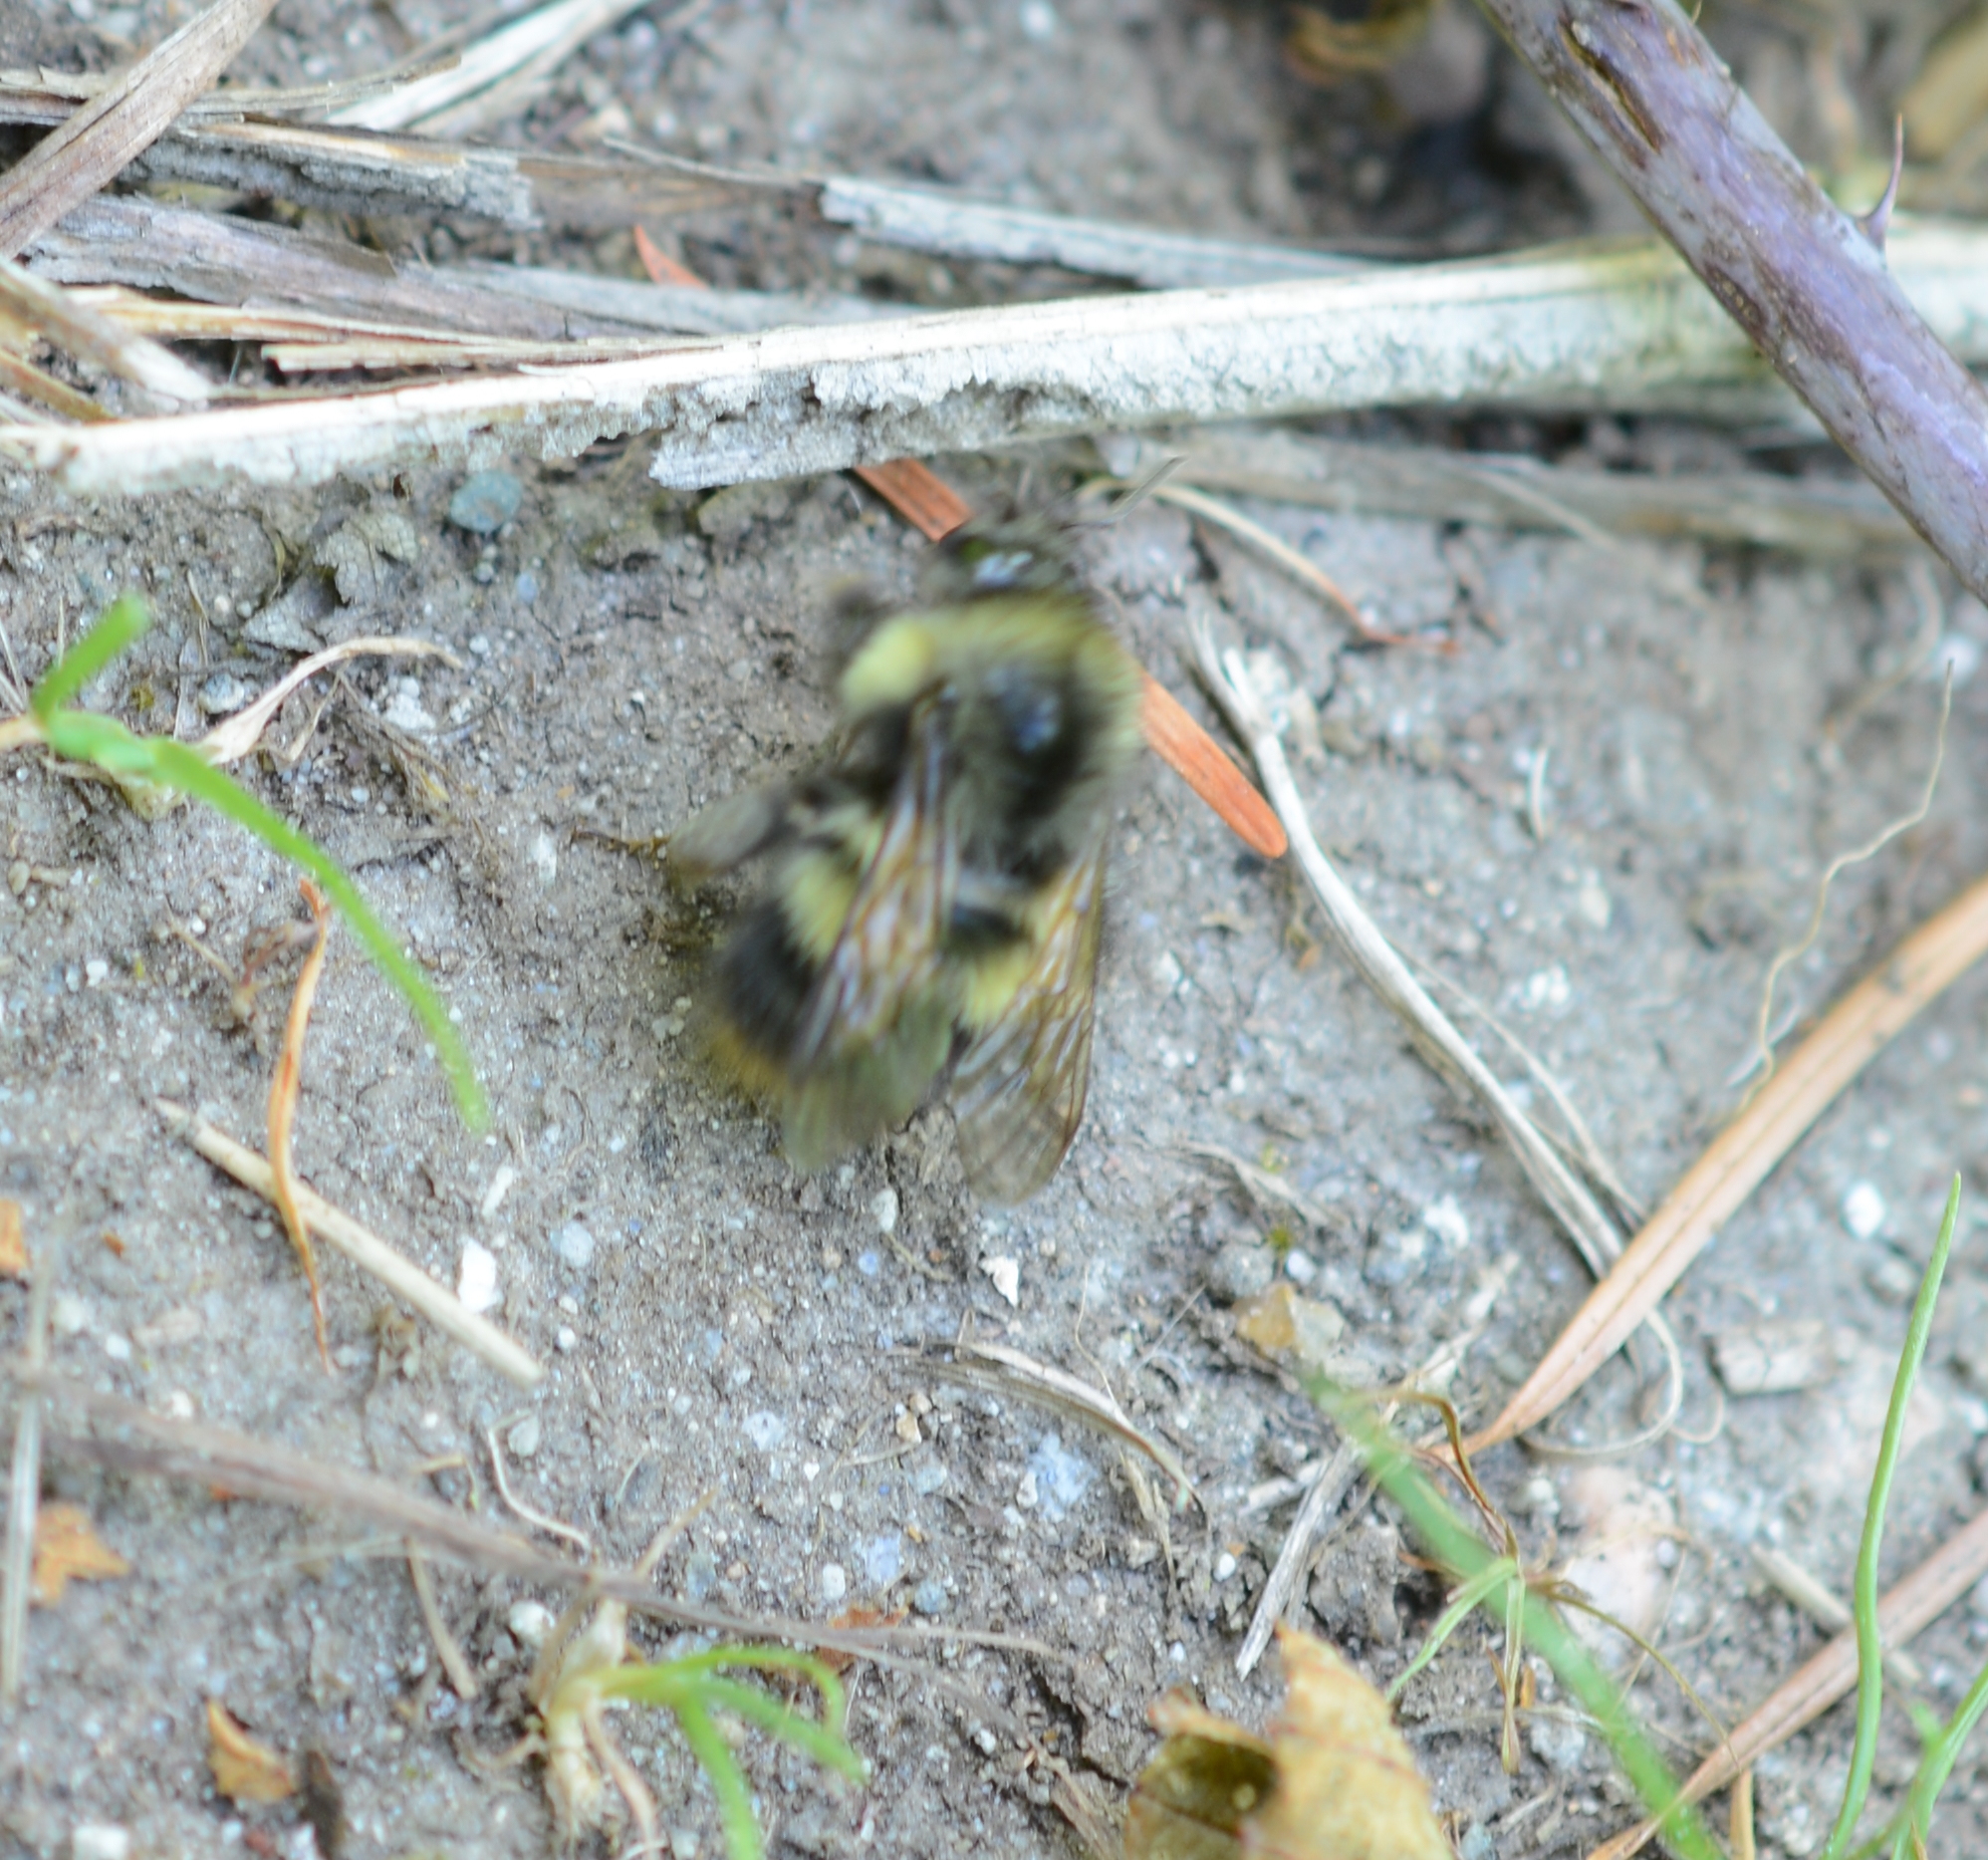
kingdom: Animalia
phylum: Arthropoda
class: Insecta
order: Hymenoptera
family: Apidae
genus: Bombus
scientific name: Bombus mixtus
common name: Fuzzy-horned bumble bee
